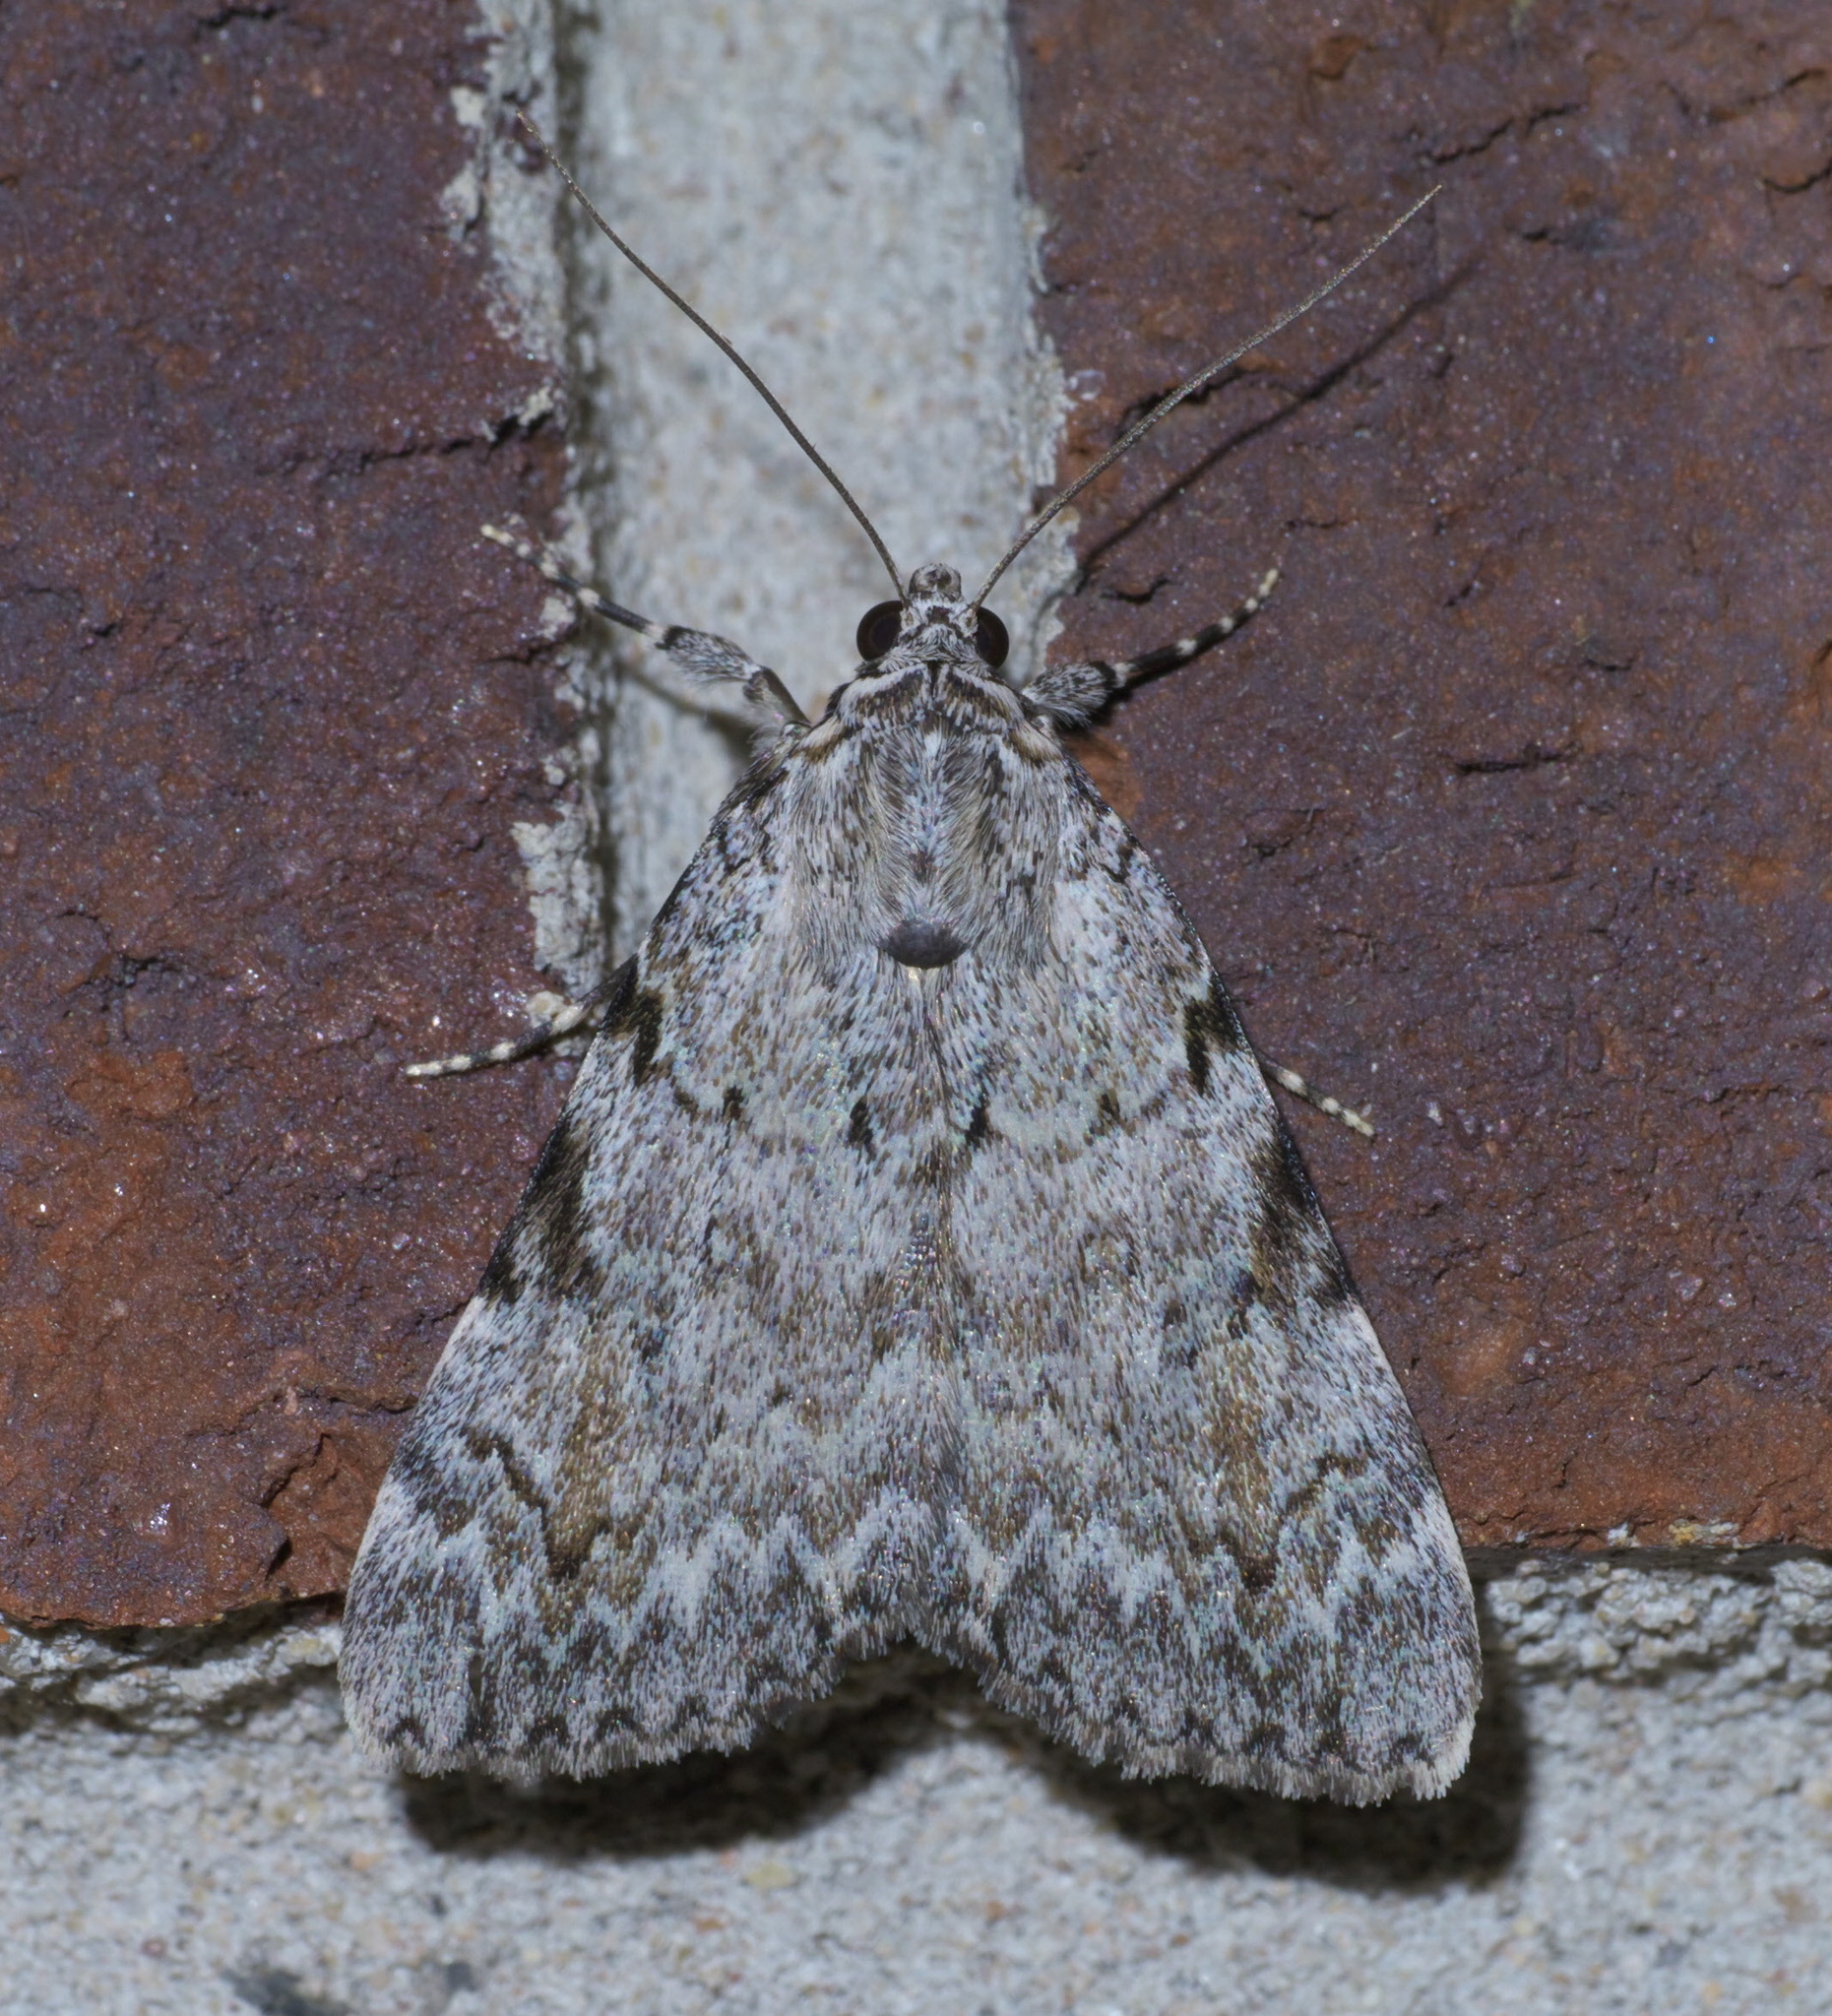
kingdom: Animalia
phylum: Arthropoda
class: Insecta
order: Lepidoptera
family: Erebidae
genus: Catocala
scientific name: Catocala amica
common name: Girlfriend underwing
